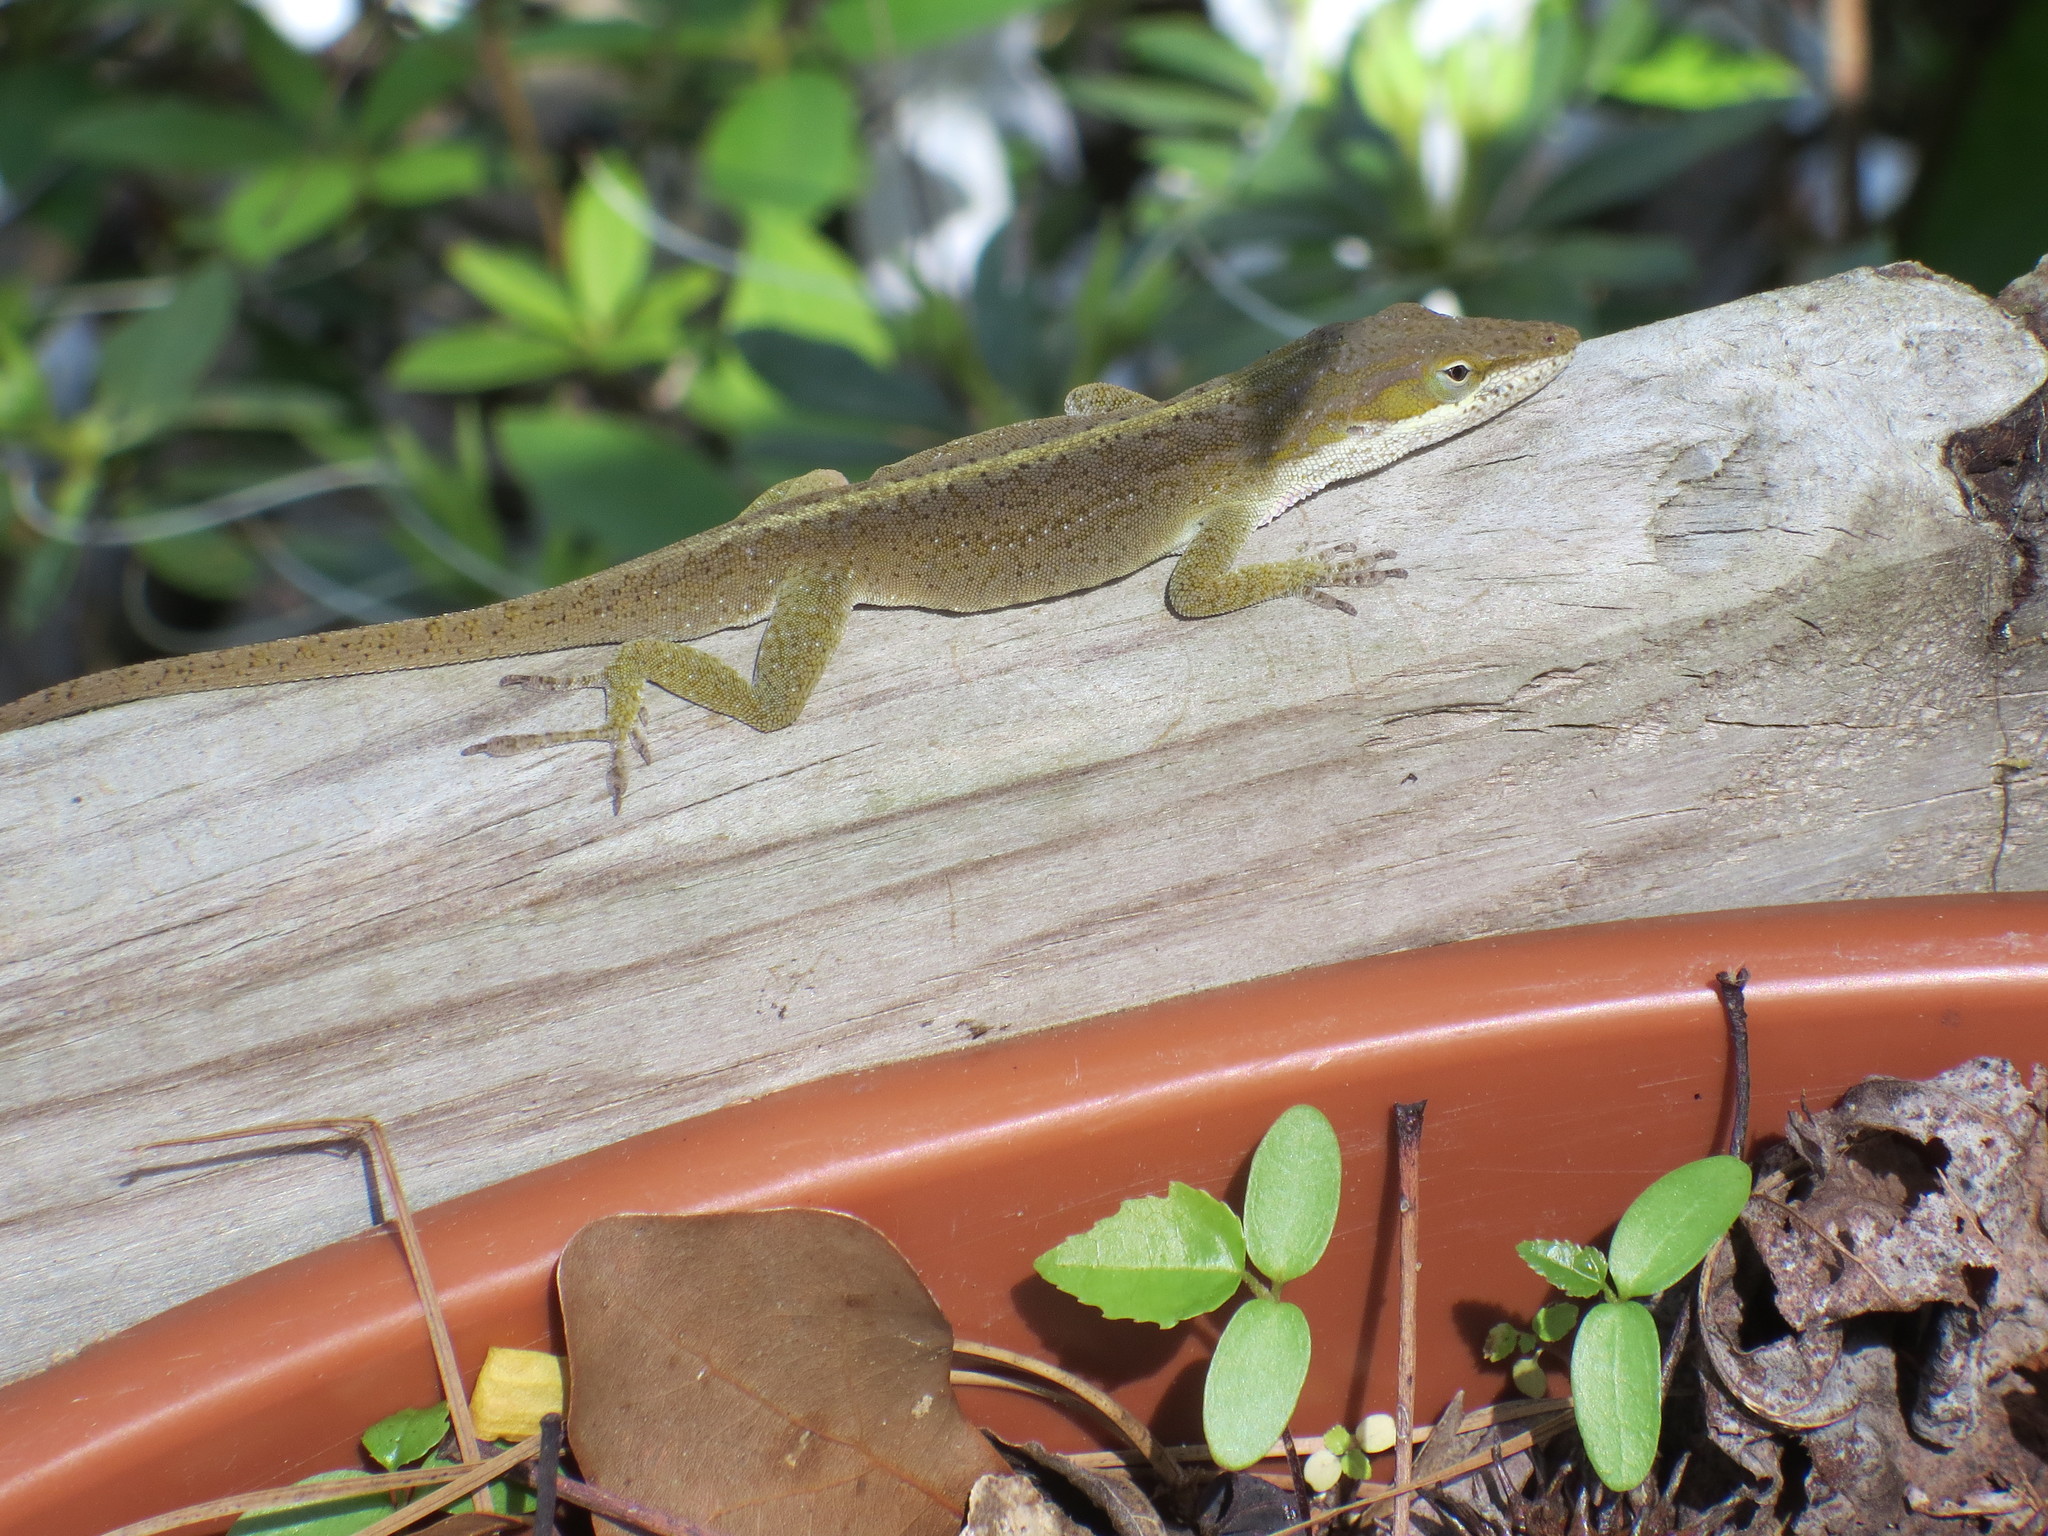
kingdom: Animalia
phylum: Chordata
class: Squamata
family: Dactyloidae
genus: Anolis
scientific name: Anolis carolinensis
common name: Green anole
